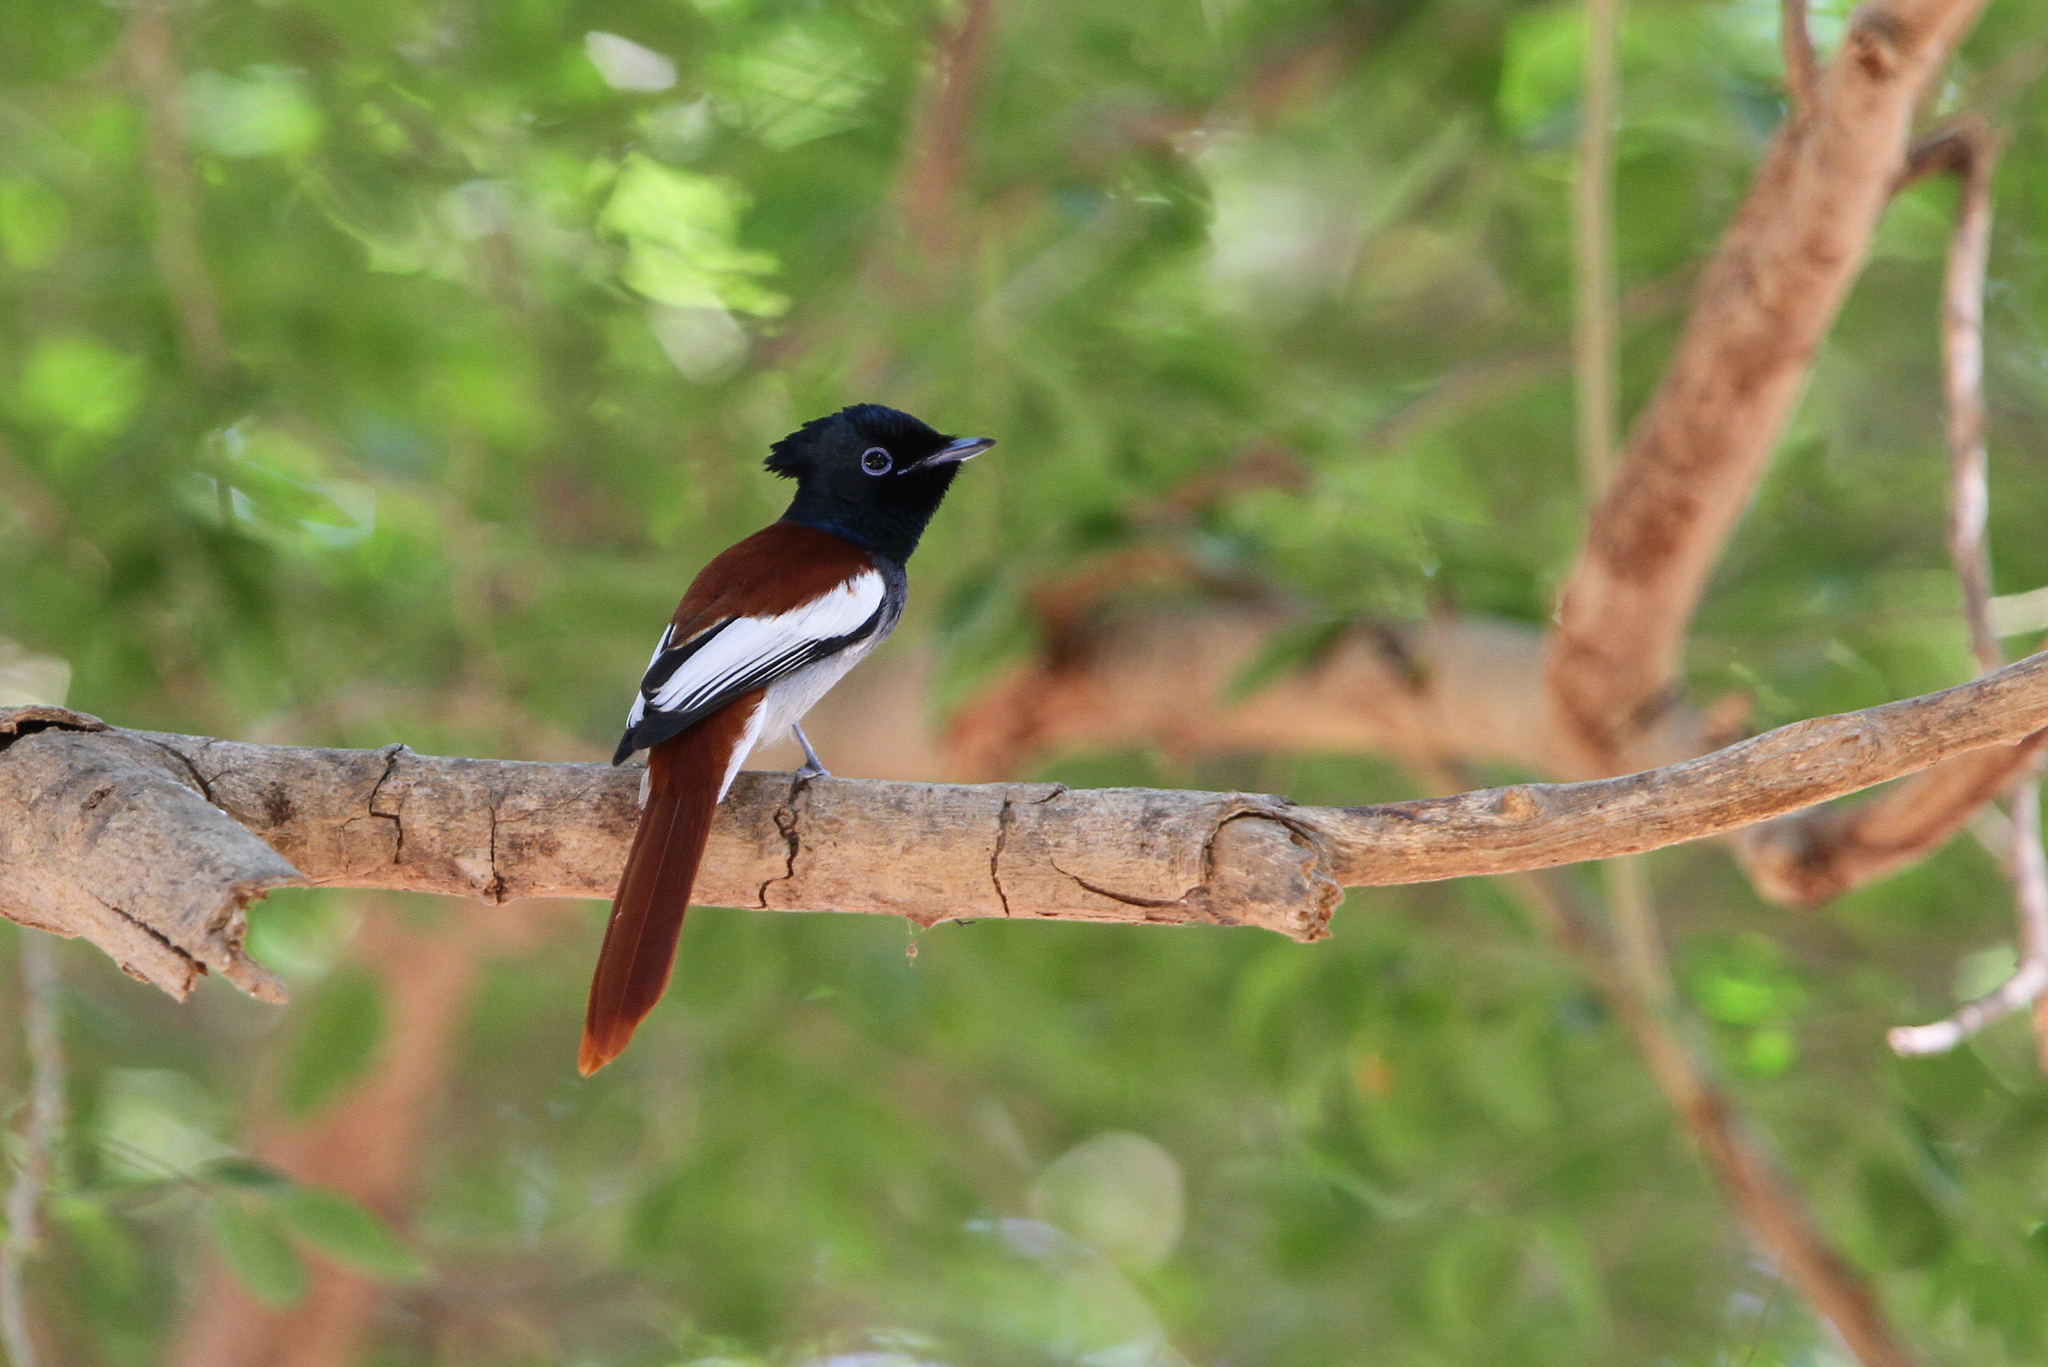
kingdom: Animalia
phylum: Chordata
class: Aves
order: Passeriformes
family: Monarchidae
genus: Terpsiphone
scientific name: Terpsiphone viridis
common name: African paradise flycatcher
